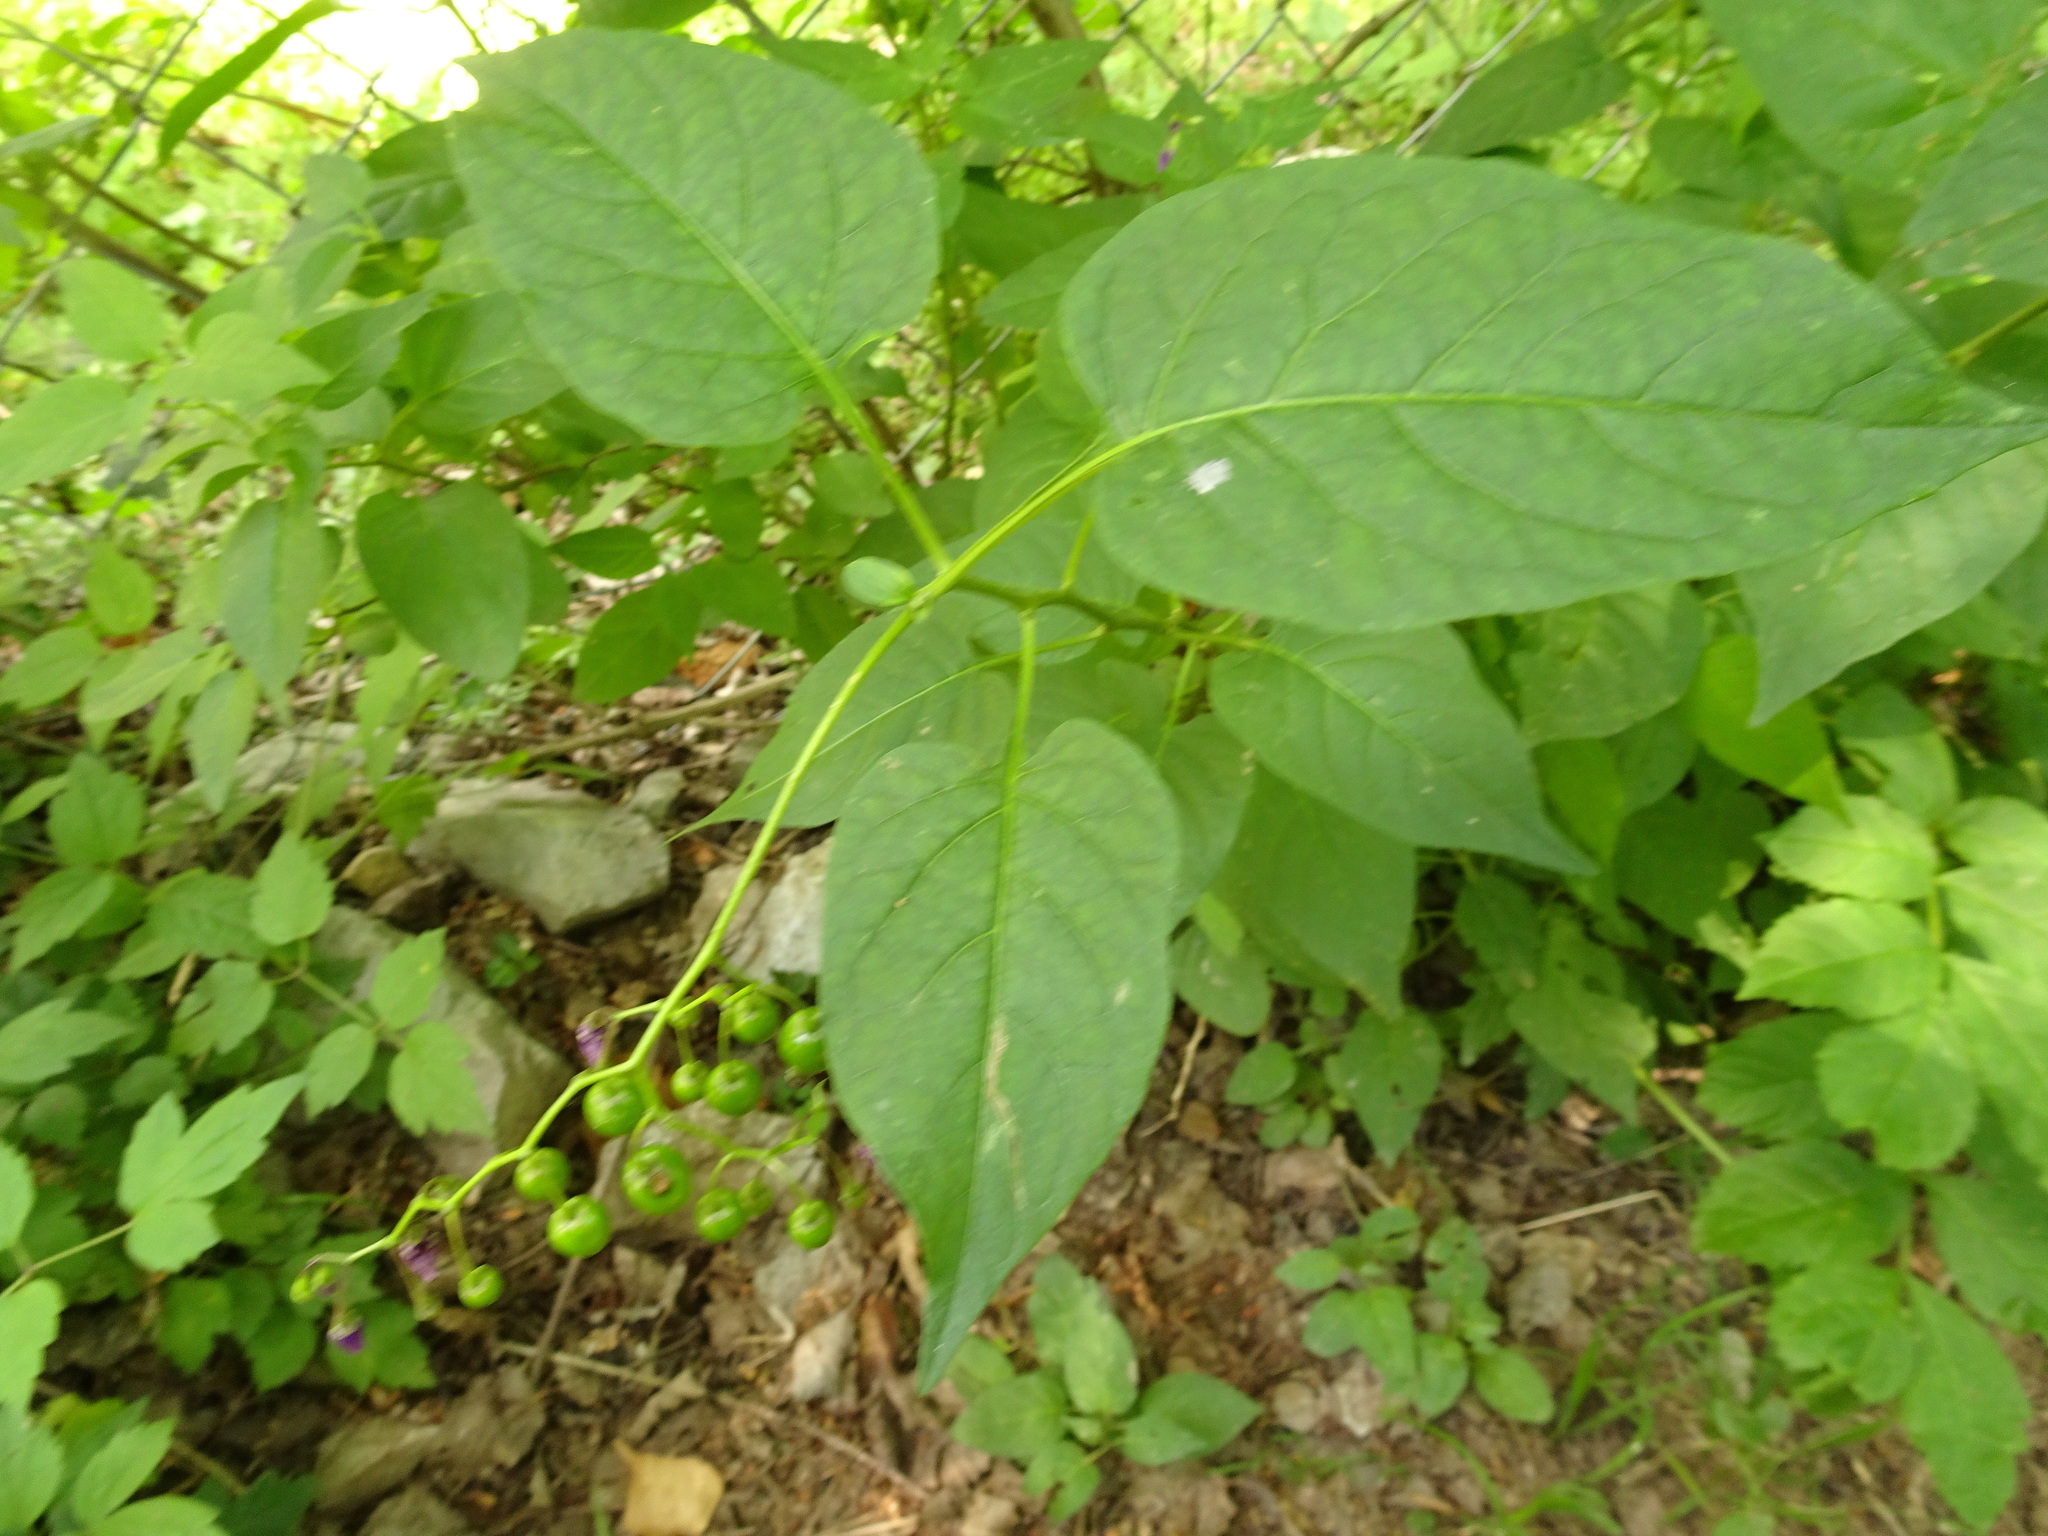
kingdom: Plantae
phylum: Tracheophyta
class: Magnoliopsida
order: Solanales
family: Solanaceae
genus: Solanum
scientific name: Solanum dulcamara
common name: Climbing nightshade
